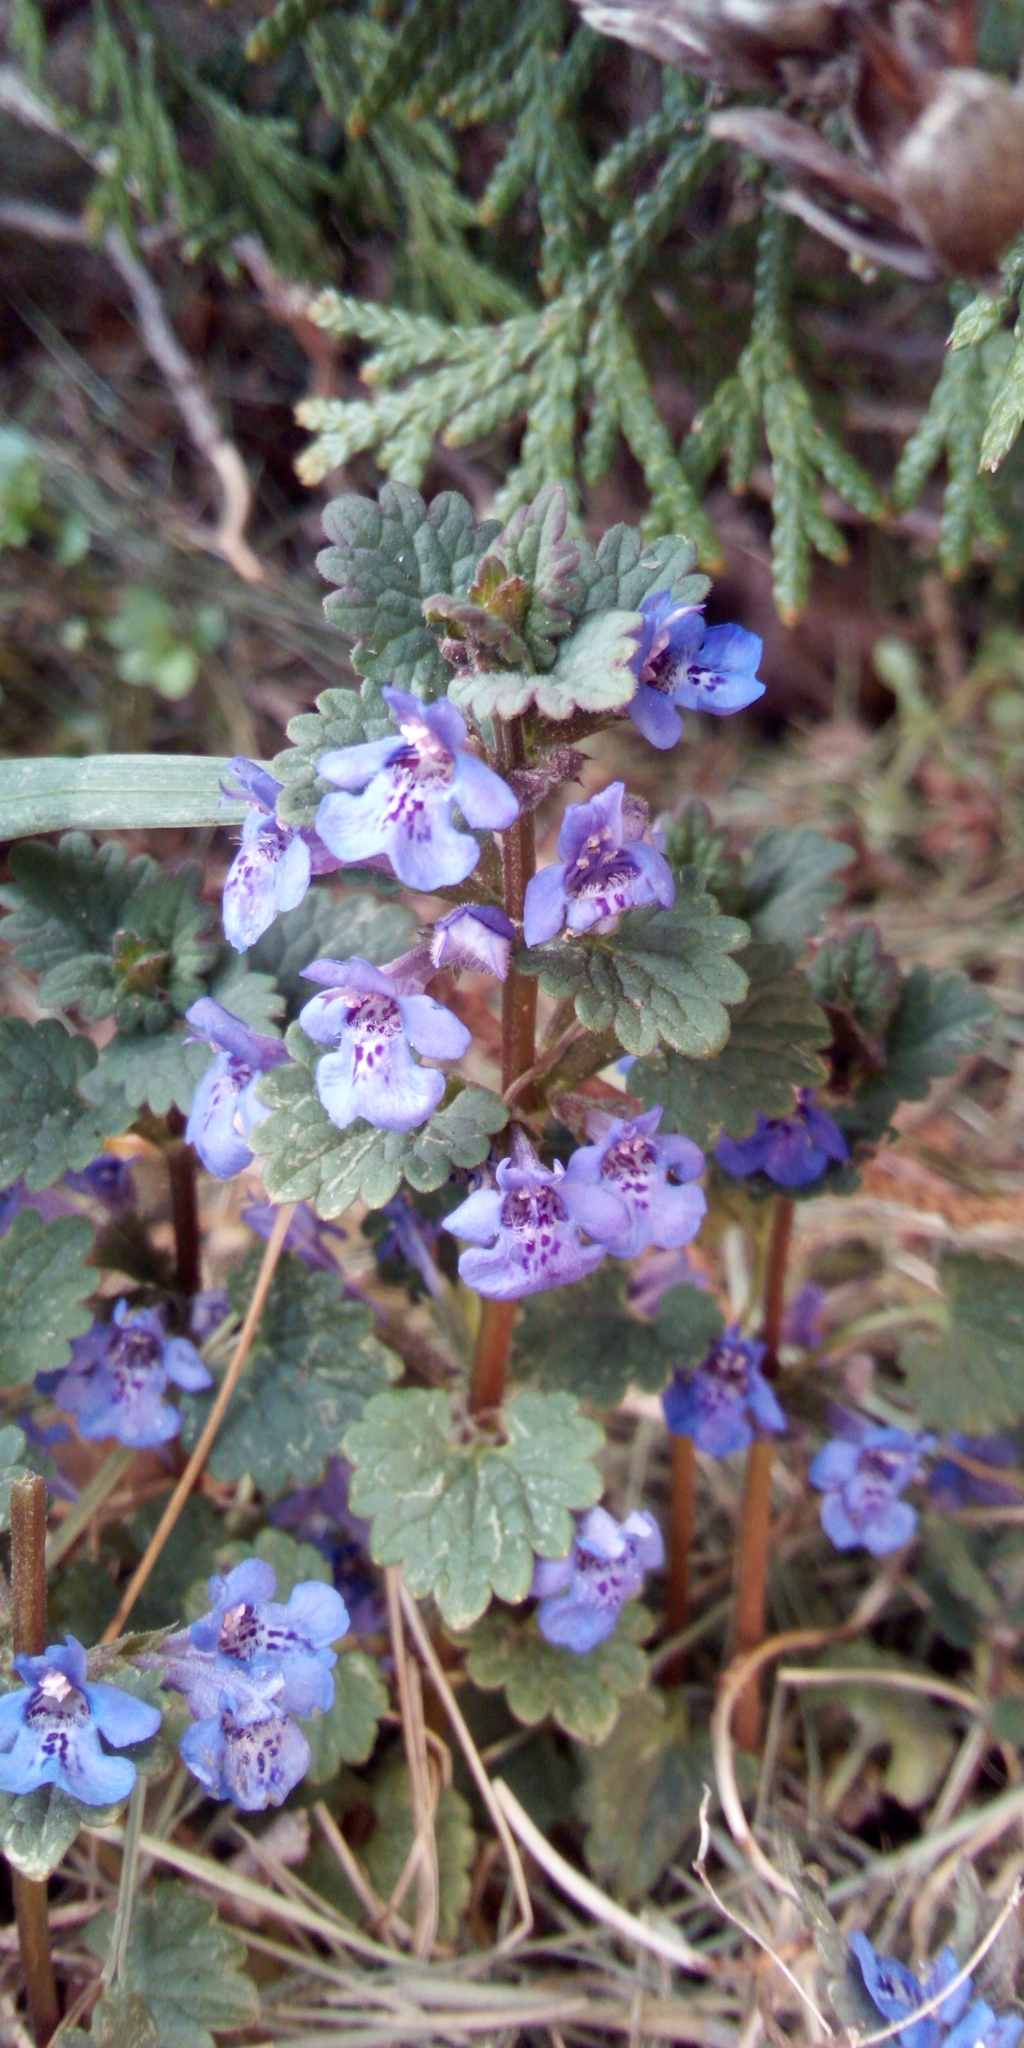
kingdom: Plantae
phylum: Tracheophyta
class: Magnoliopsida
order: Lamiales
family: Lamiaceae
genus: Glechoma
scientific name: Glechoma hederacea
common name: Ground ivy
